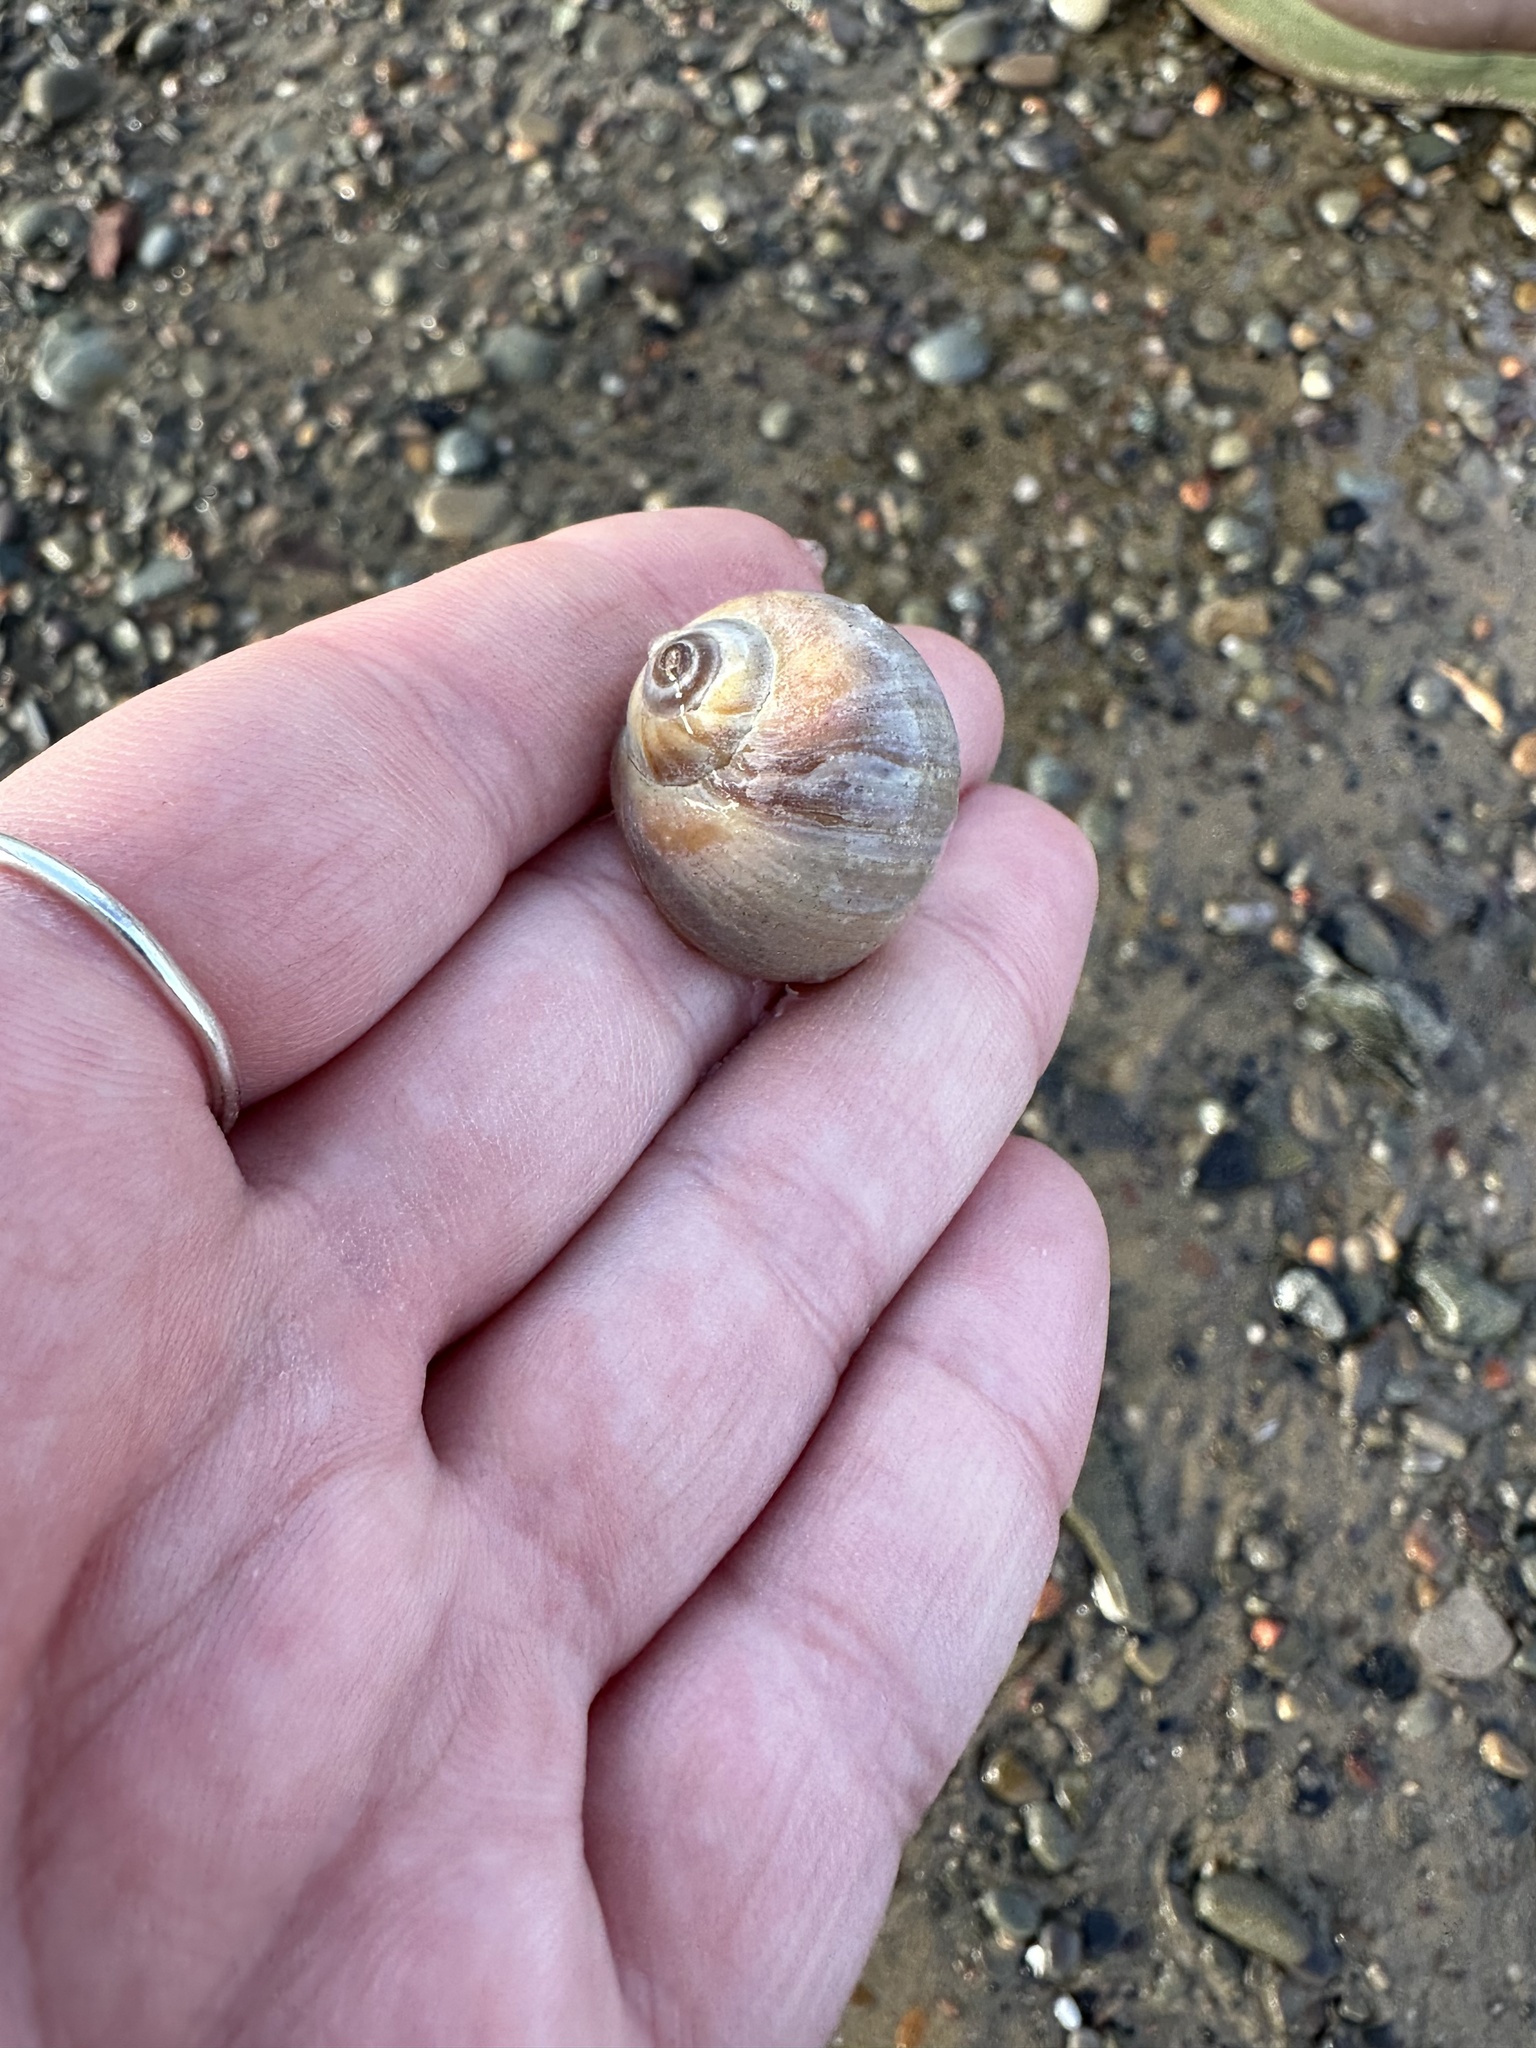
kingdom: Animalia
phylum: Mollusca
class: Gastropoda
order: Littorinimorpha
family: Naticidae
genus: Euspira
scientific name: Euspira heros
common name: Common northern moonsnail
